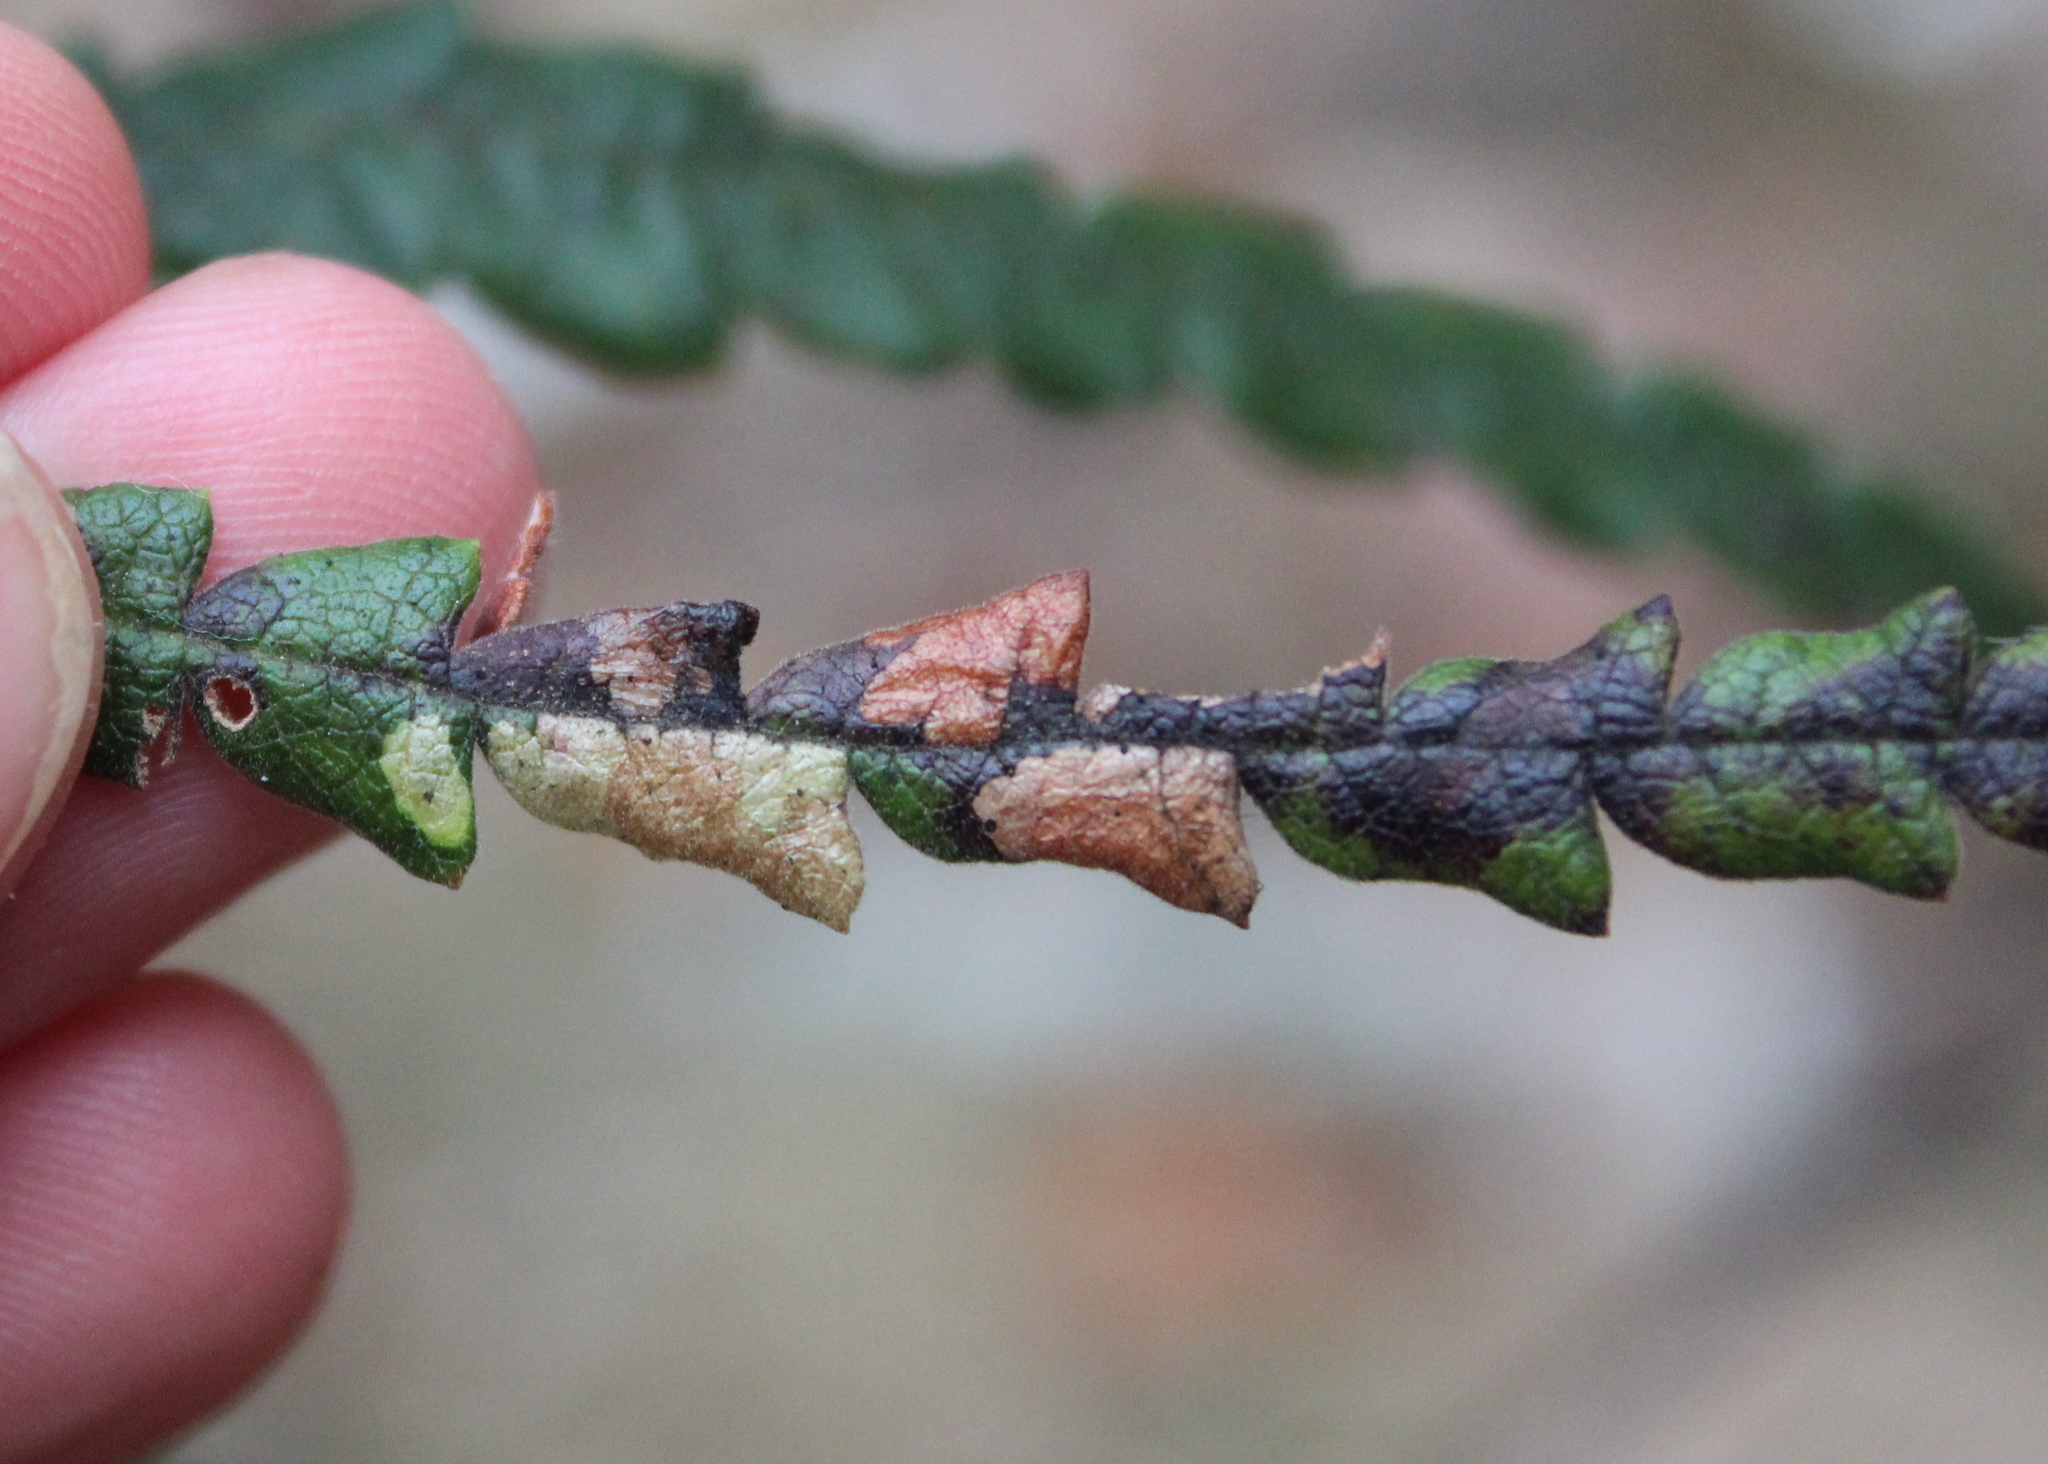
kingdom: Plantae
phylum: Tracheophyta
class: Magnoliopsida
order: Fagales
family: Myricaceae
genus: Comptonia
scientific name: Comptonia peregrina
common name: Sweet-fern
